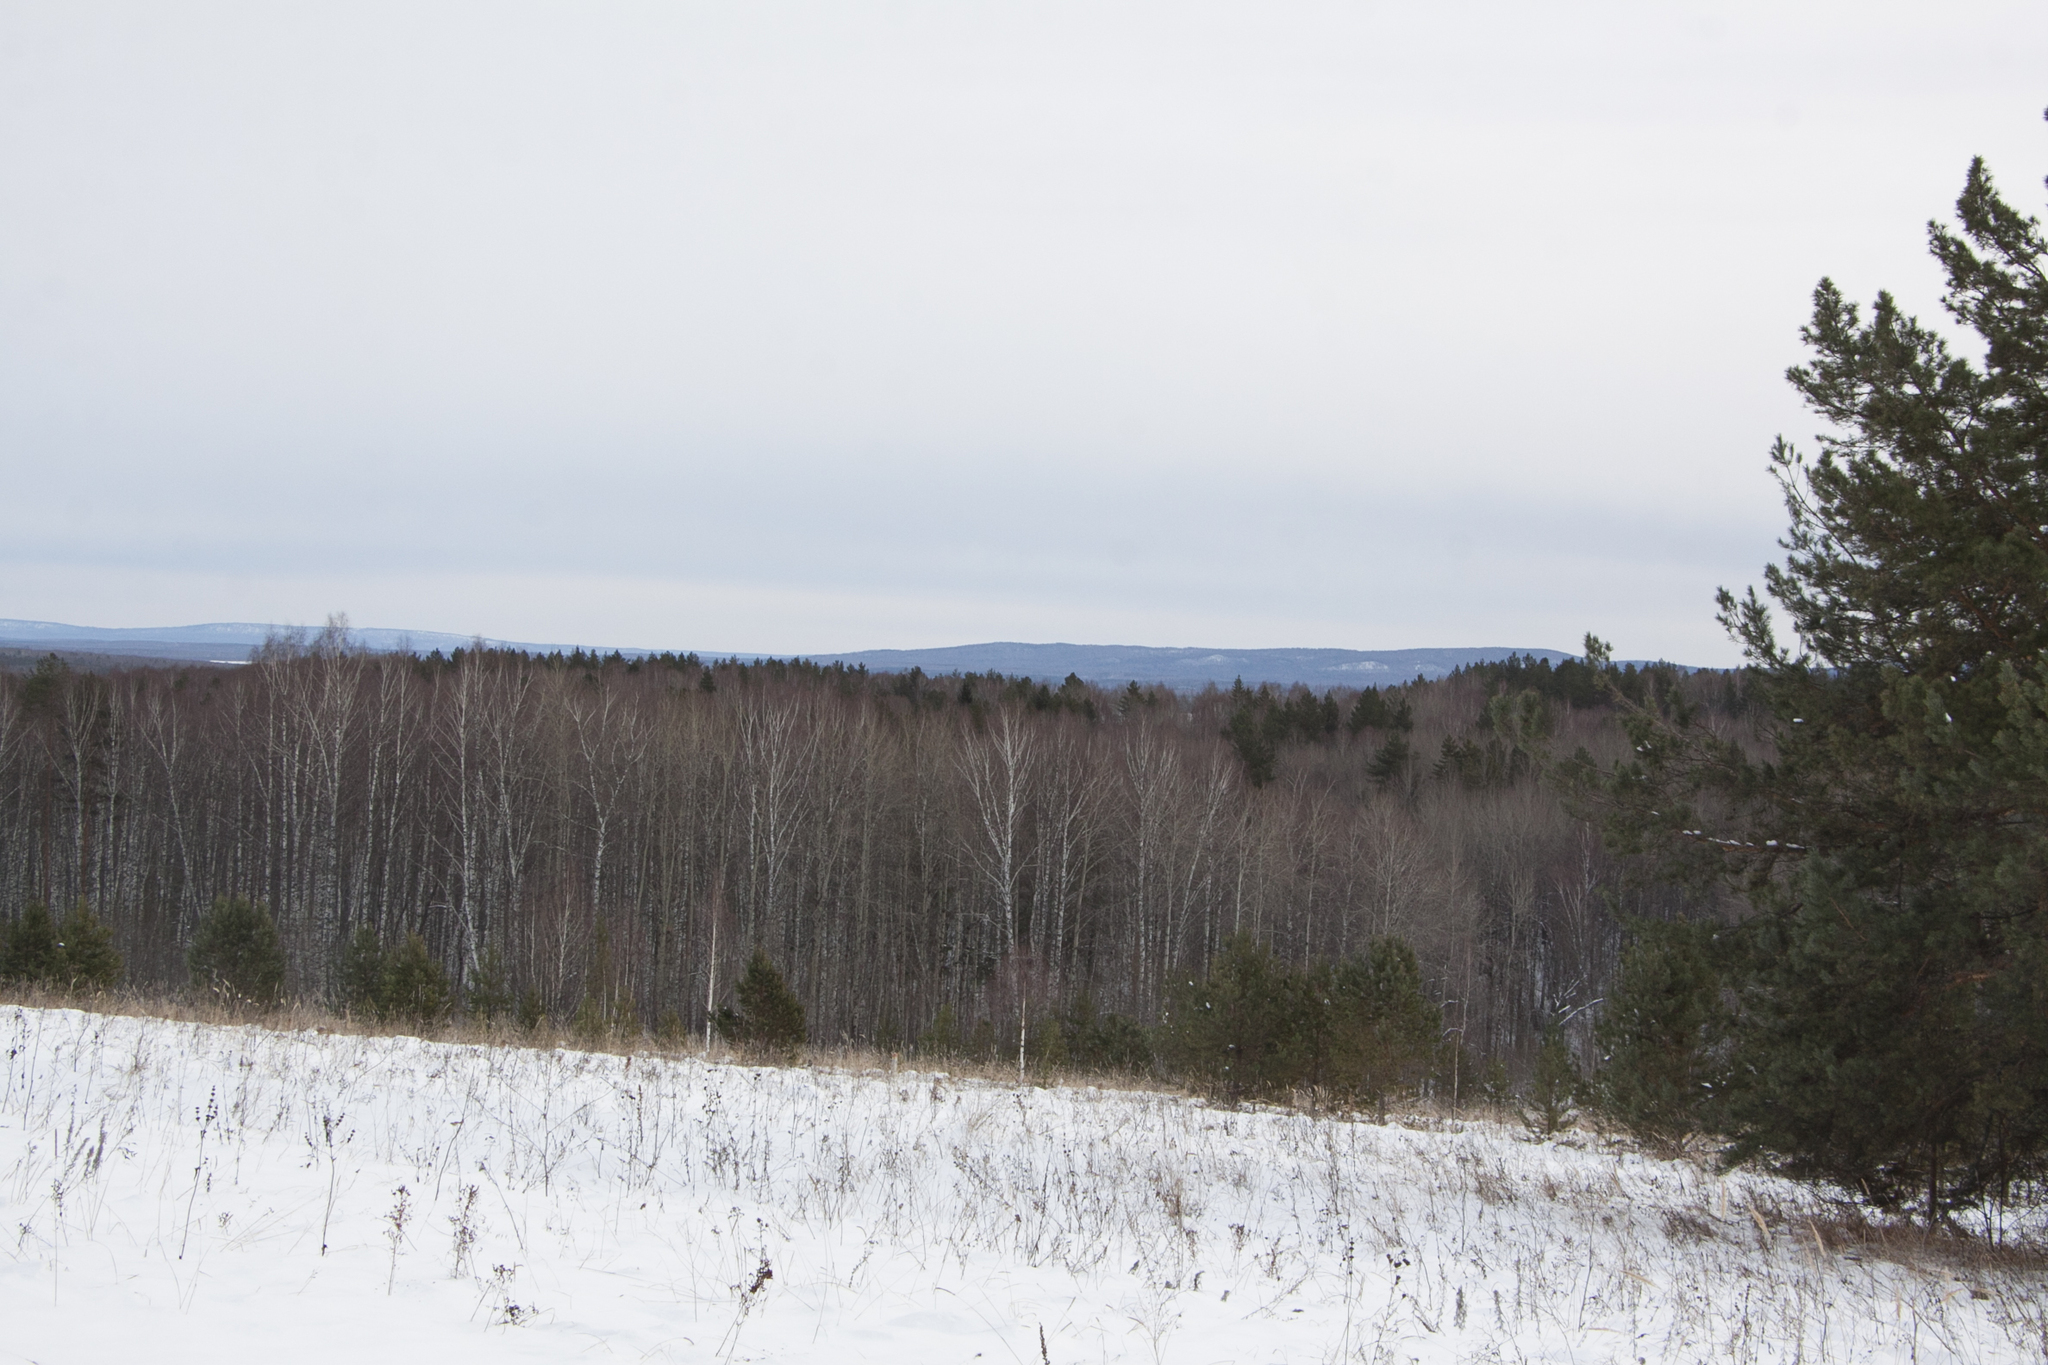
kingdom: Plantae
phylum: Tracheophyta
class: Pinopsida
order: Pinales
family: Pinaceae
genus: Pinus
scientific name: Pinus sylvestris
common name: Scots pine
